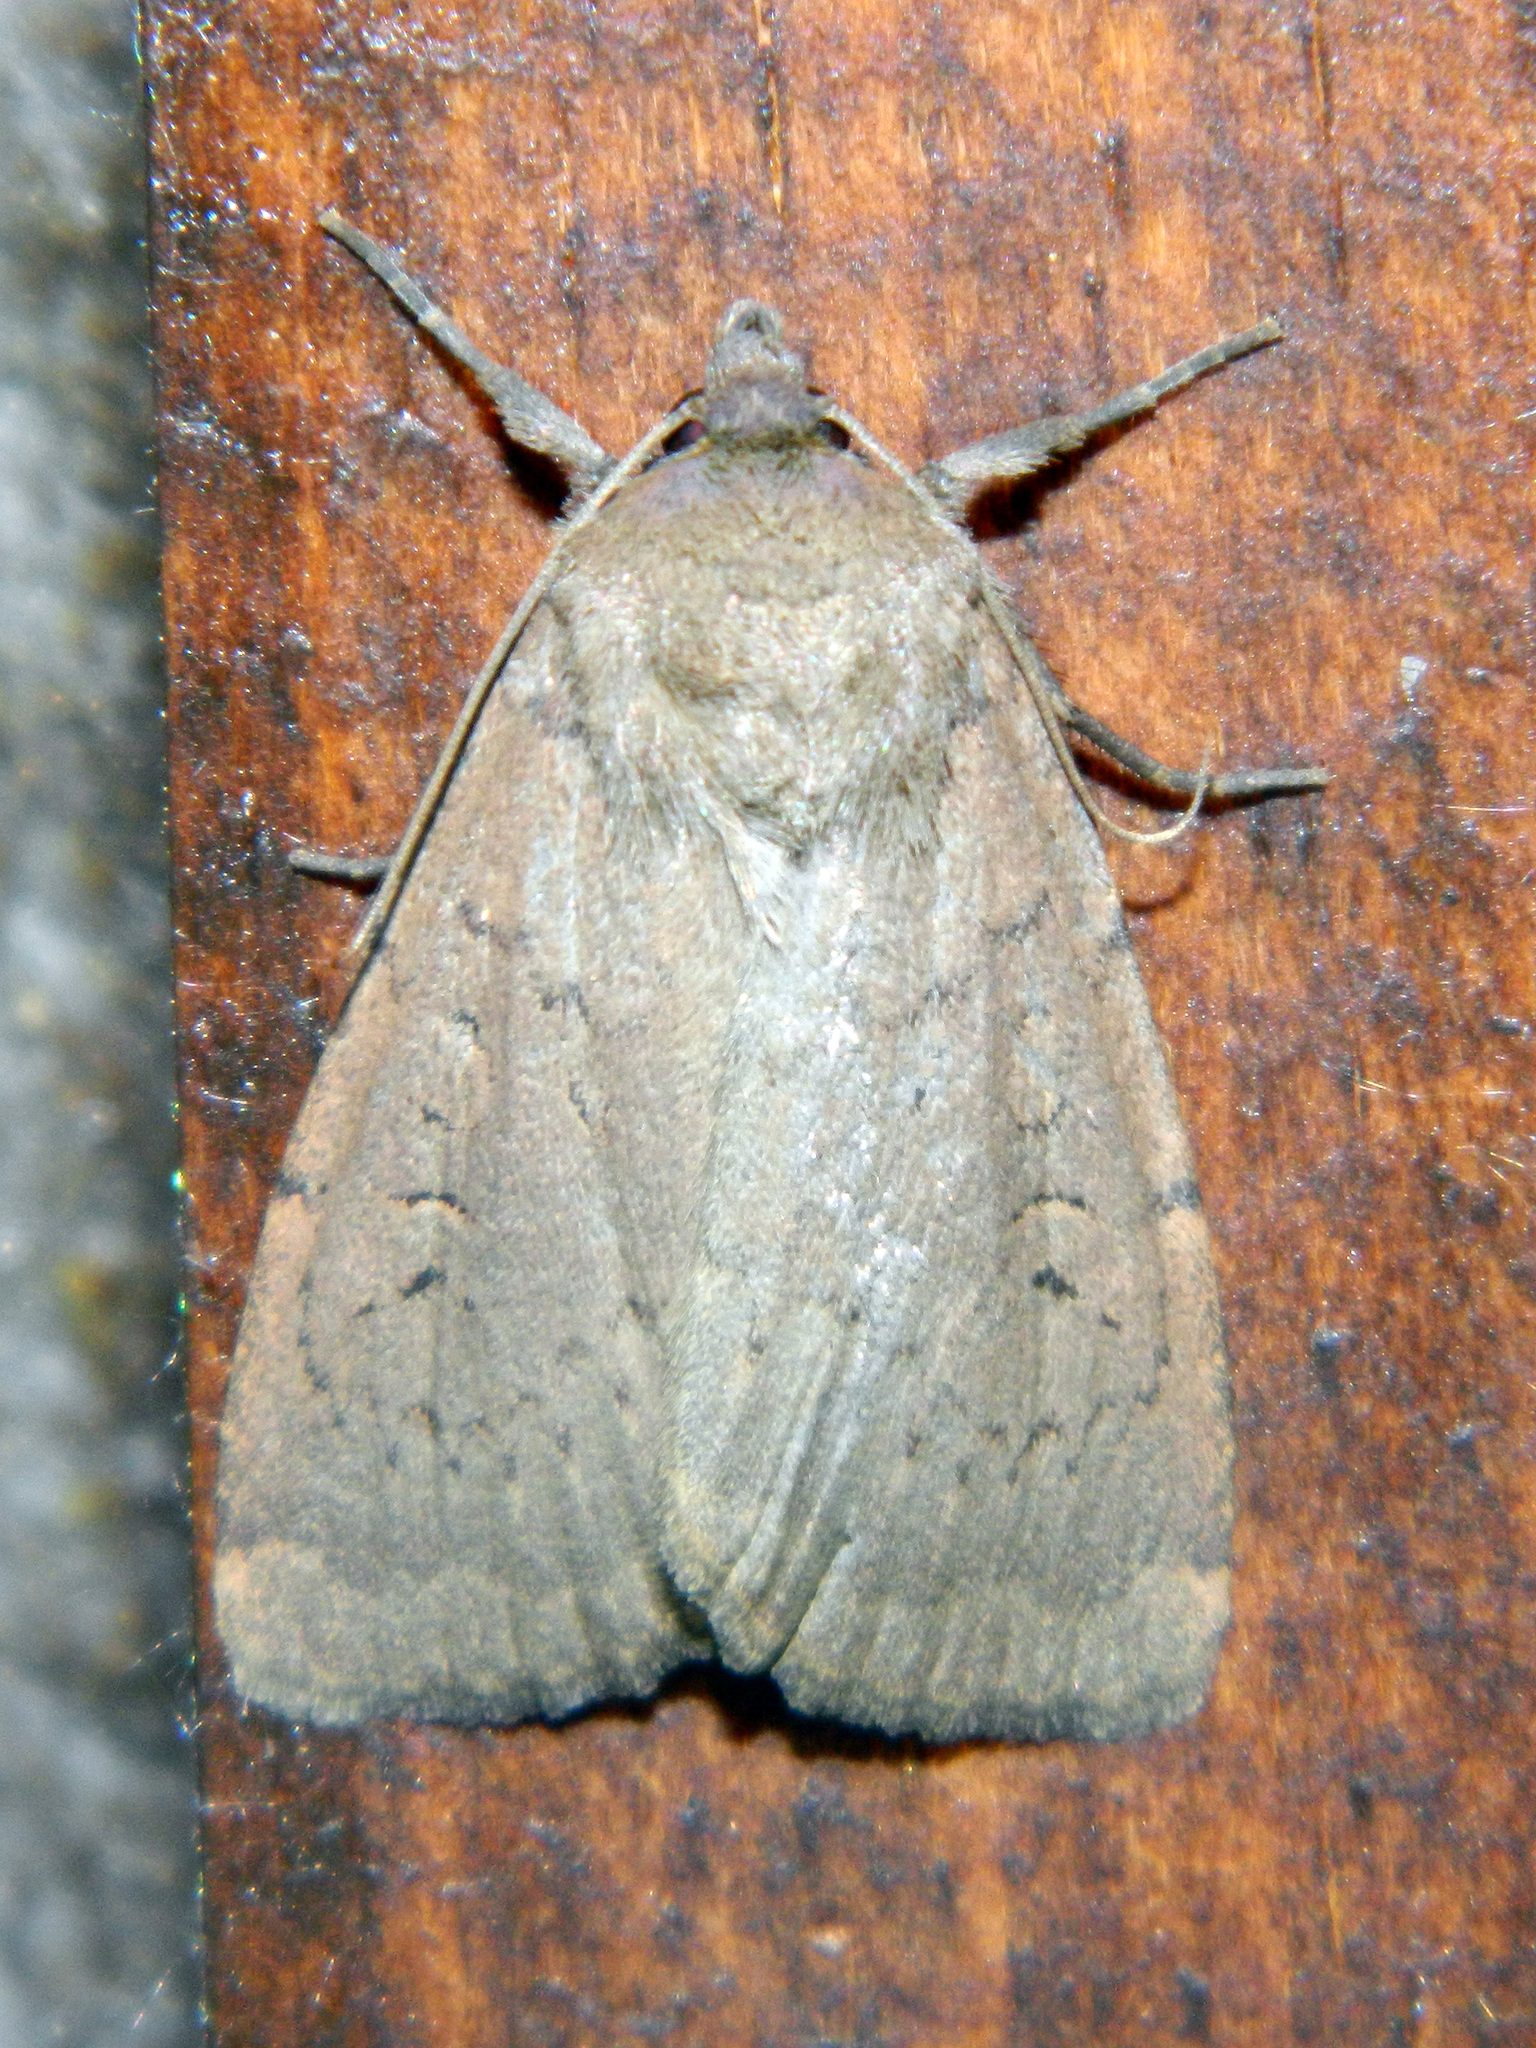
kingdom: Animalia
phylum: Arthropoda
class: Insecta
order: Lepidoptera
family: Noctuidae
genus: Graphiphora
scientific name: Graphiphora augur
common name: Double dart
